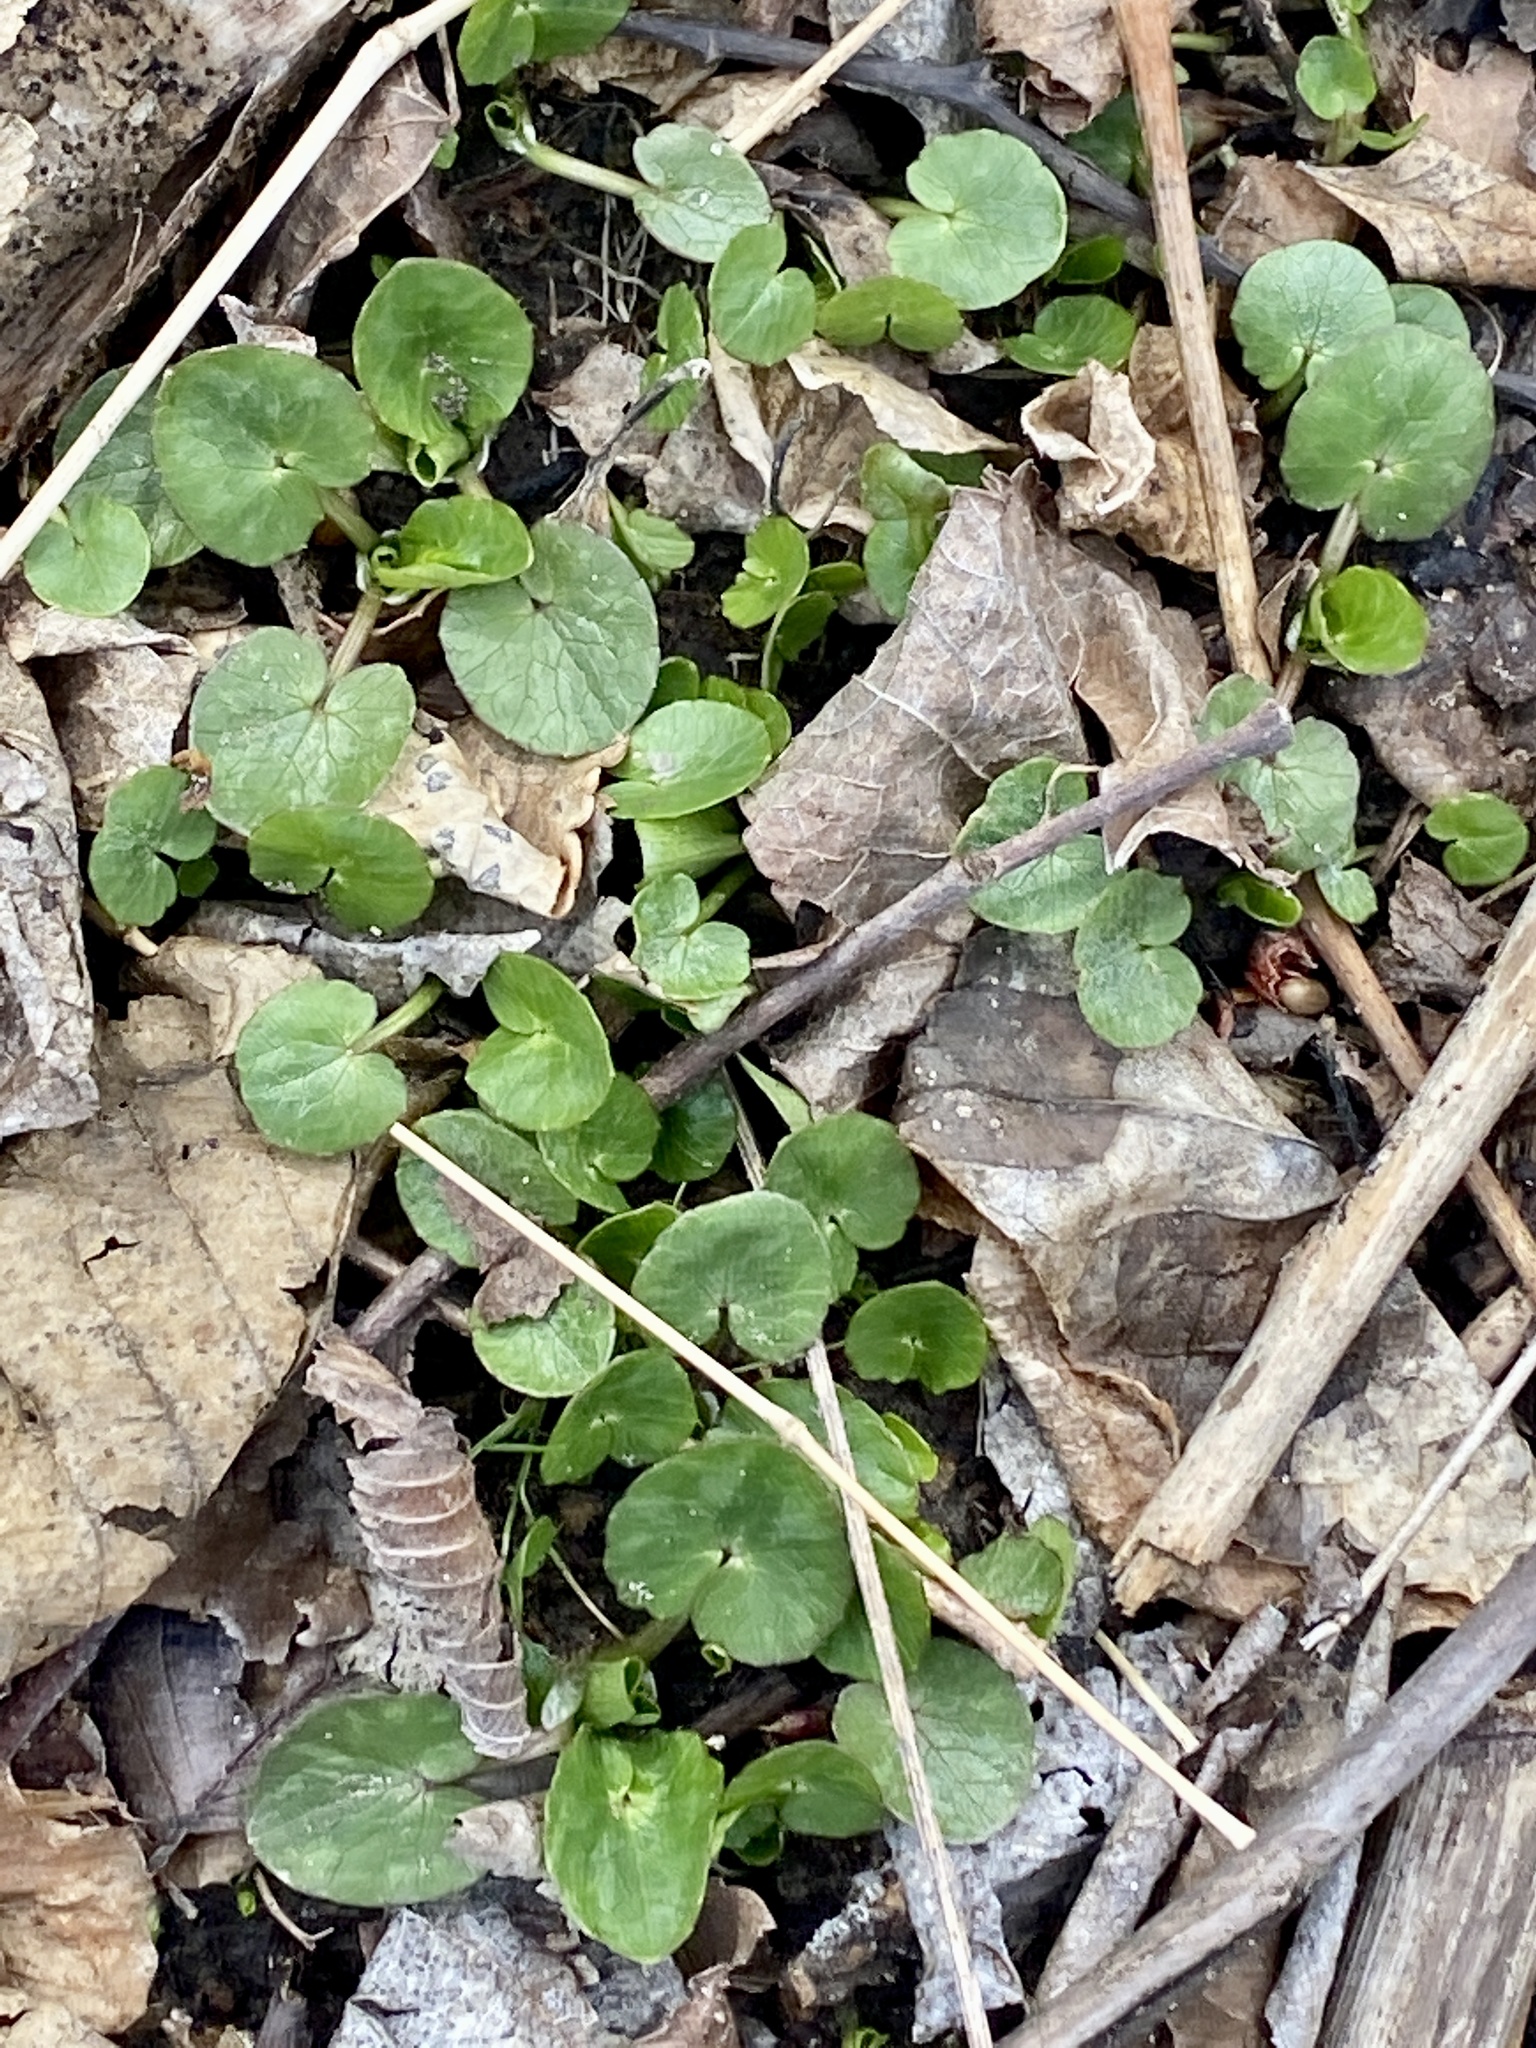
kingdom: Plantae
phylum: Tracheophyta
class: Magnoliopsida
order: Ranunculales
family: Ranunculaceae
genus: Ficaria
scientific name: Ficaria verna
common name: Lesser celandine
